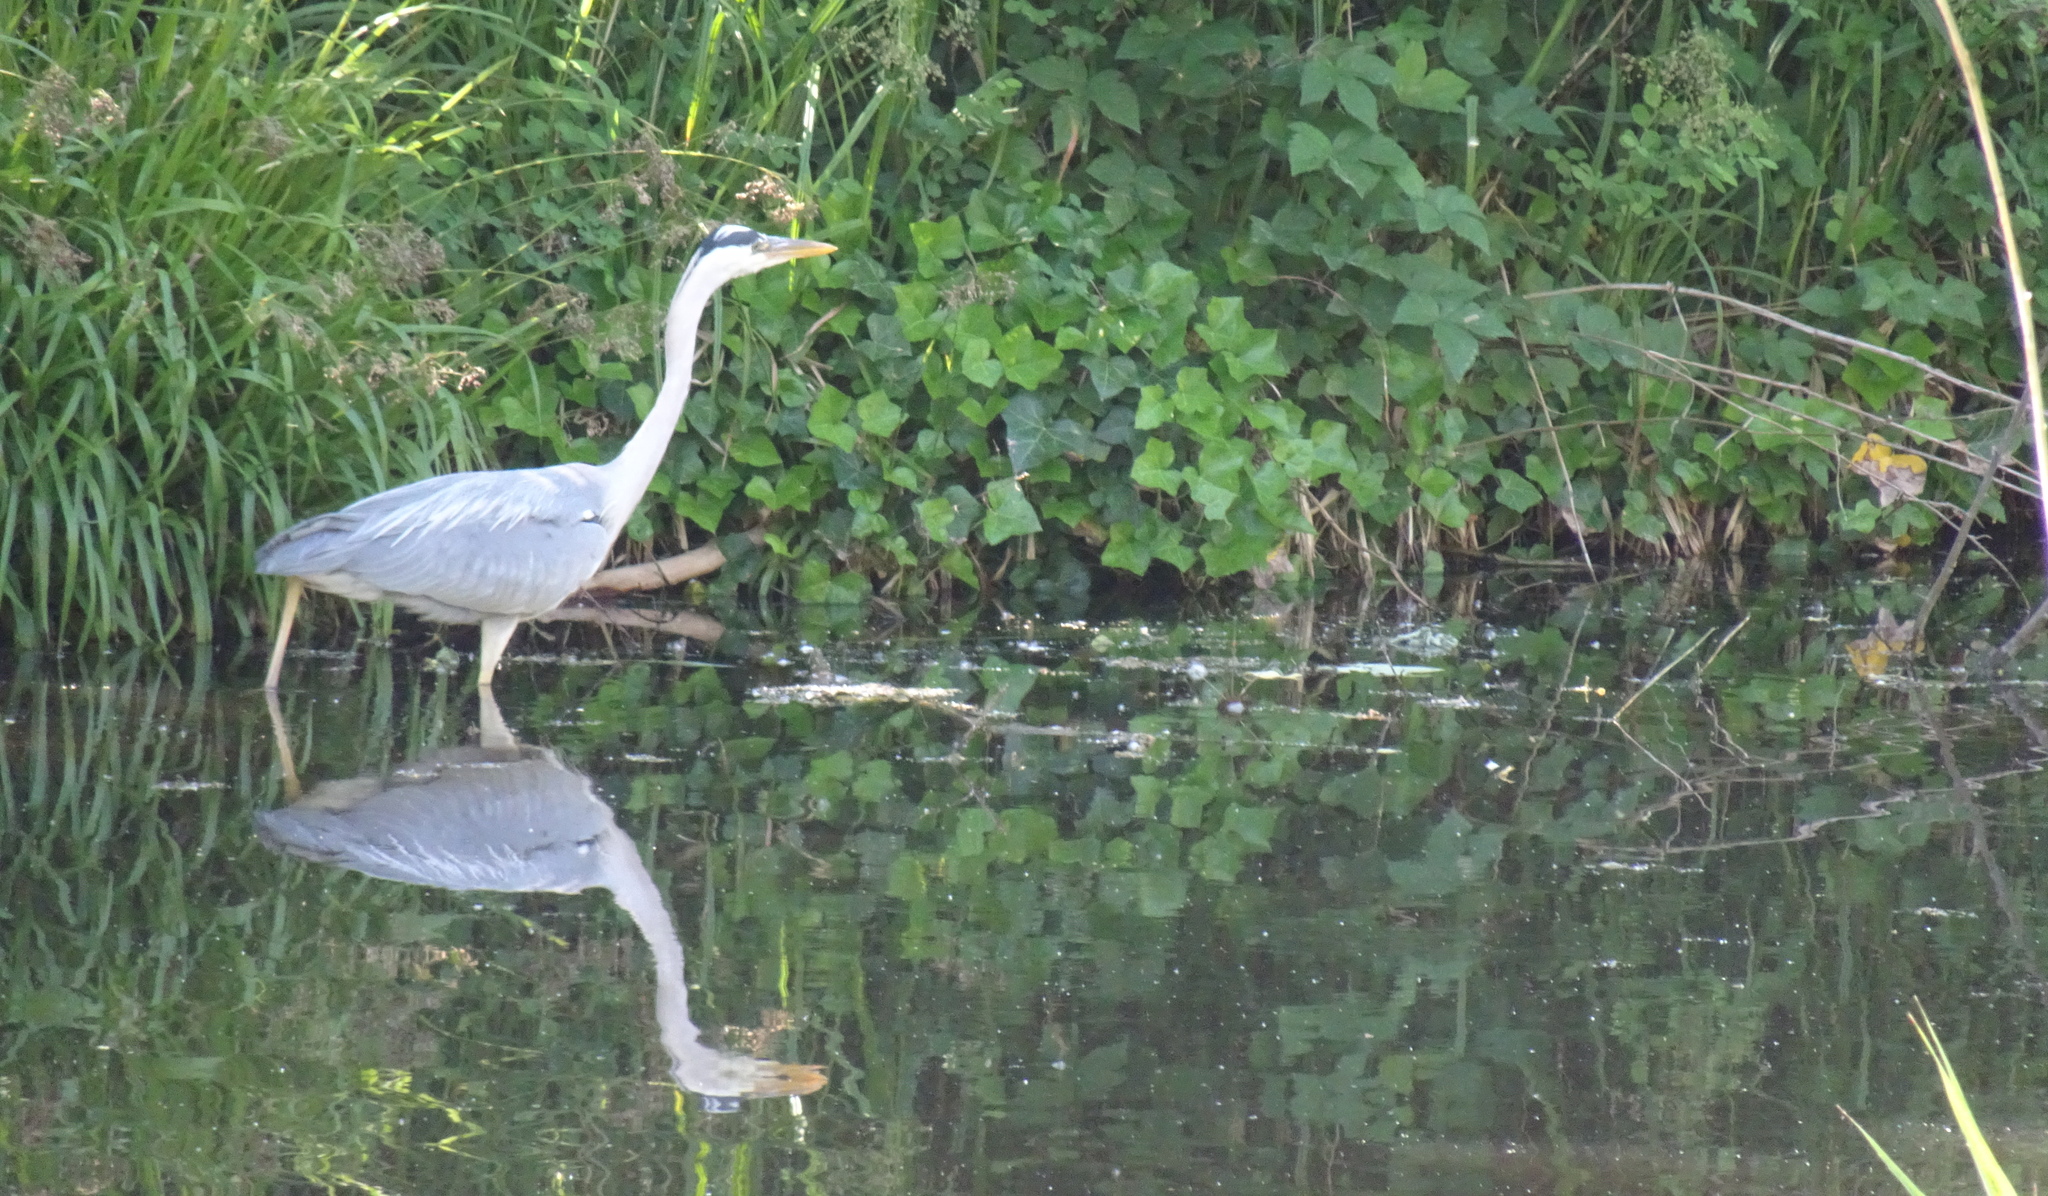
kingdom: Animalia
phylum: Chordata
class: Aves
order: Pelecaniformes
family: Ardeidae
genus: Ardea
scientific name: Ardea cinerea
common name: Grey heron
